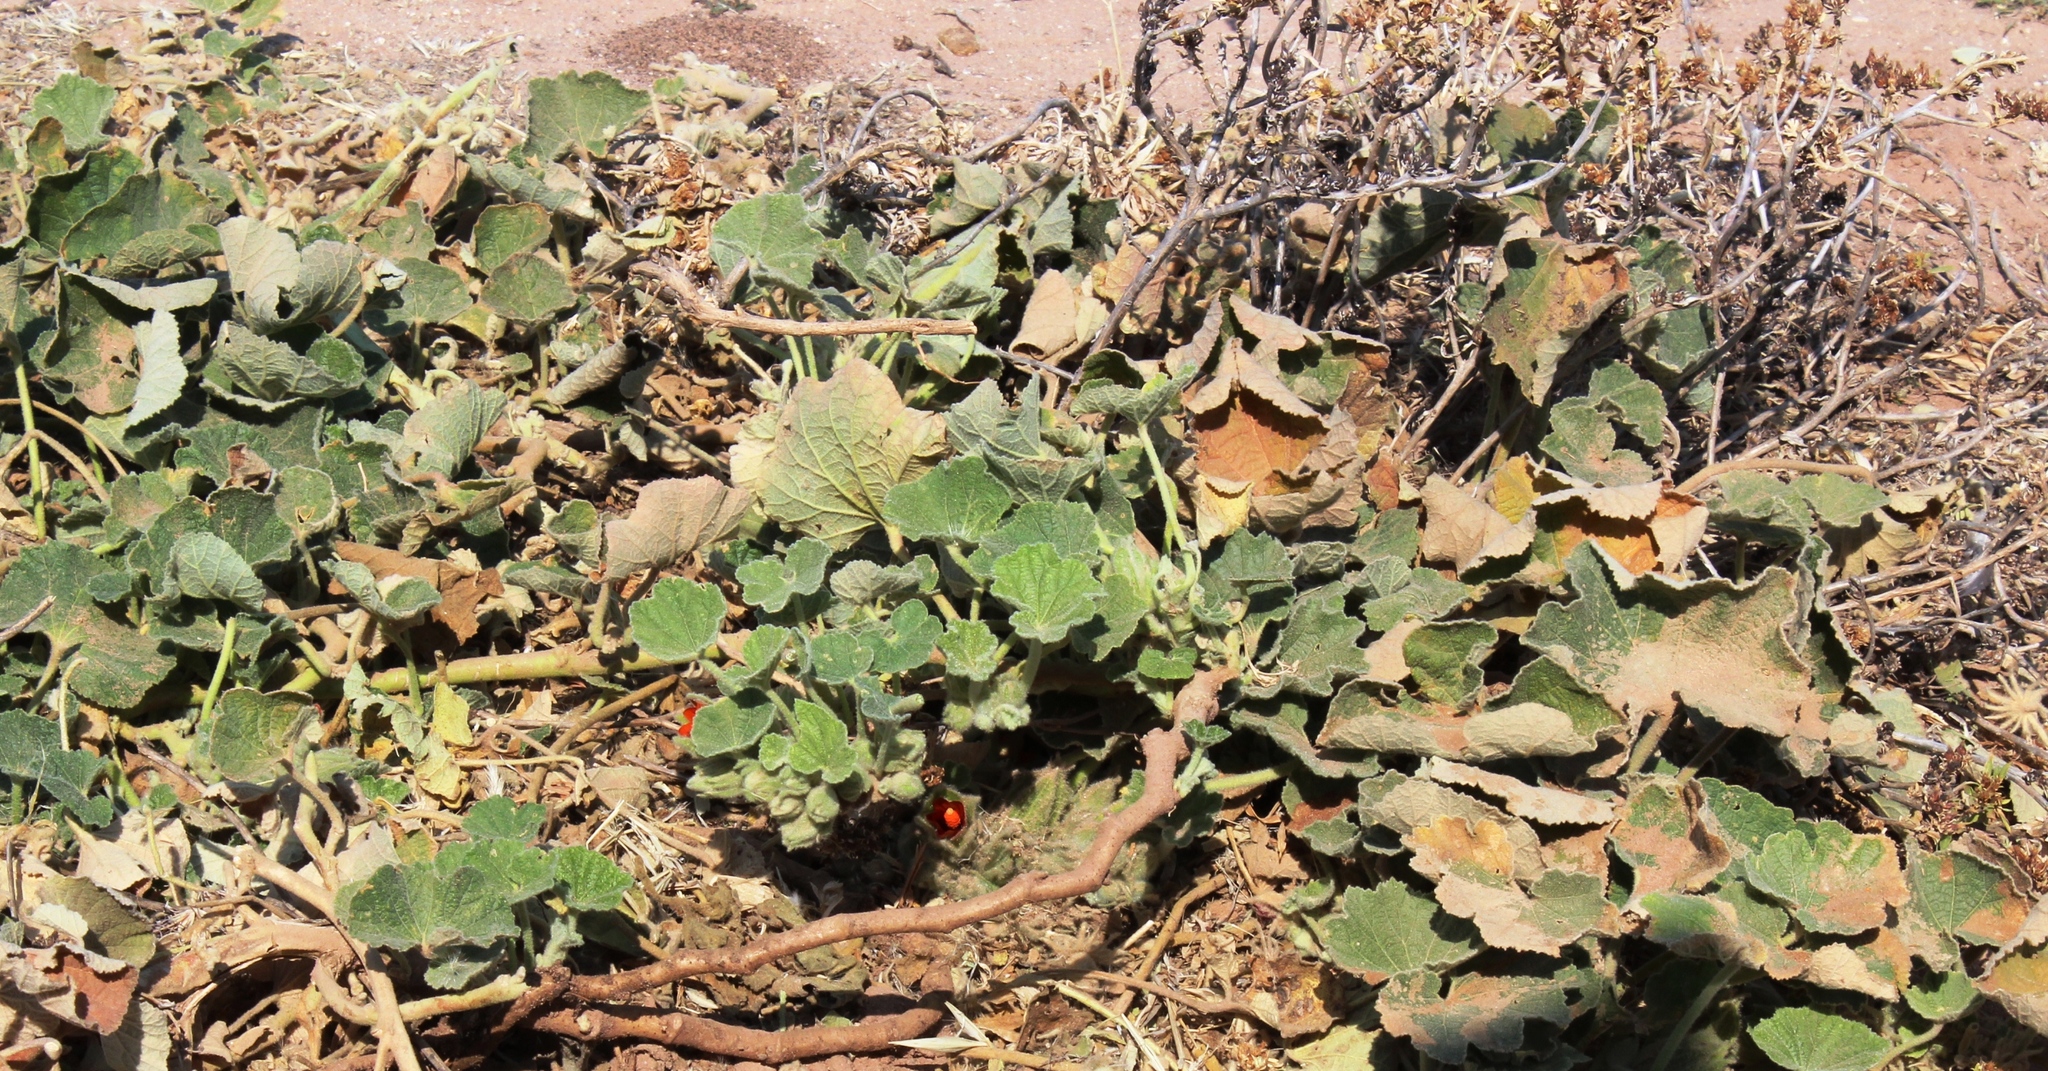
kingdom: Plantae
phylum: Tracheophyta
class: Magnoliopsida
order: Malvales
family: Malvaceae
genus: Radyera
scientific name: Radyera urens
